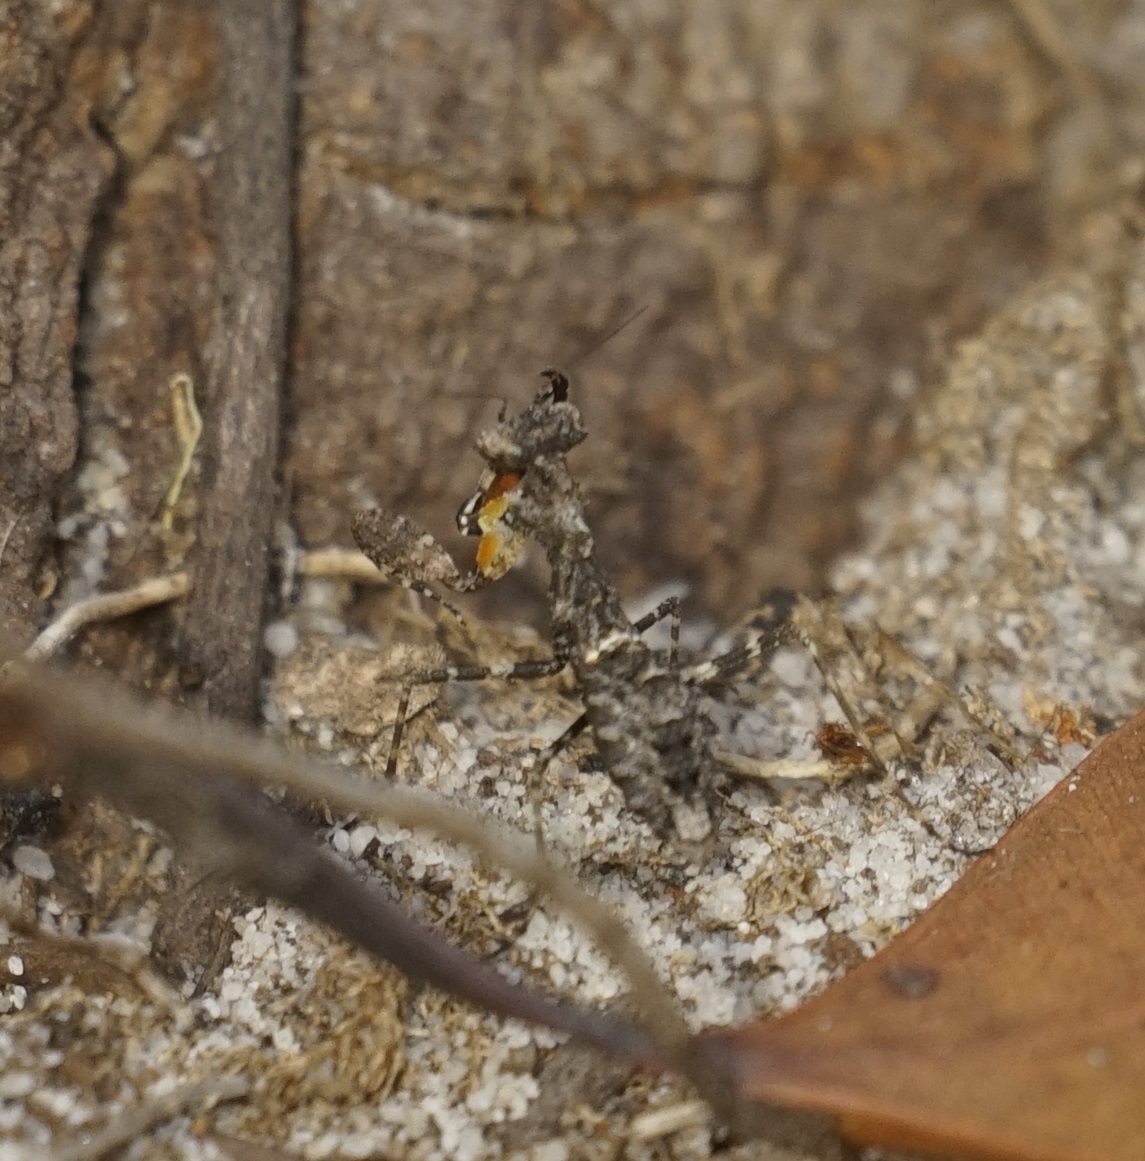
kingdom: Animalia
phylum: Arthropoda
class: Insecta
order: Mantodea
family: Nanomantidae
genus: Paraoxypilus
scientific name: Paraoxypilus tasmaniensis
